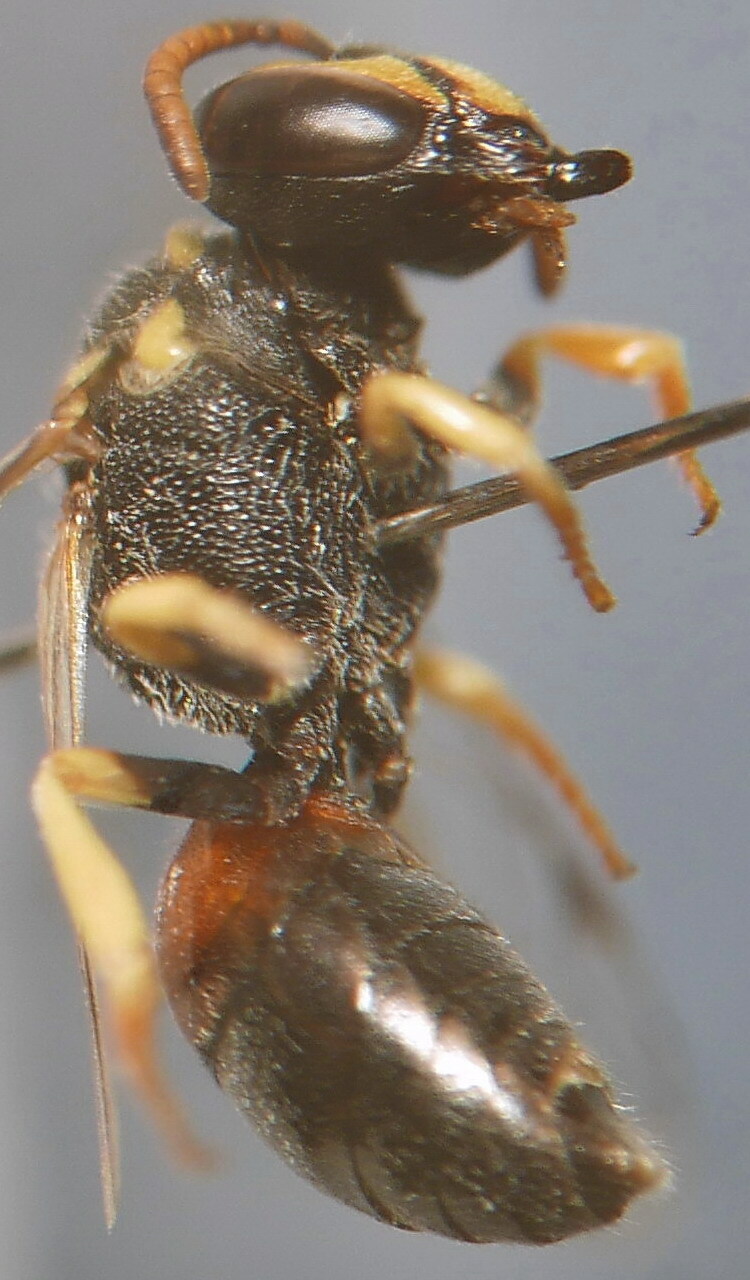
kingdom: Animalia
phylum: Arthropoda
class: Insecta
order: Hymenoptera
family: Colletidae
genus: Hylaeus
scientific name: Hylaeus sulphuripes
